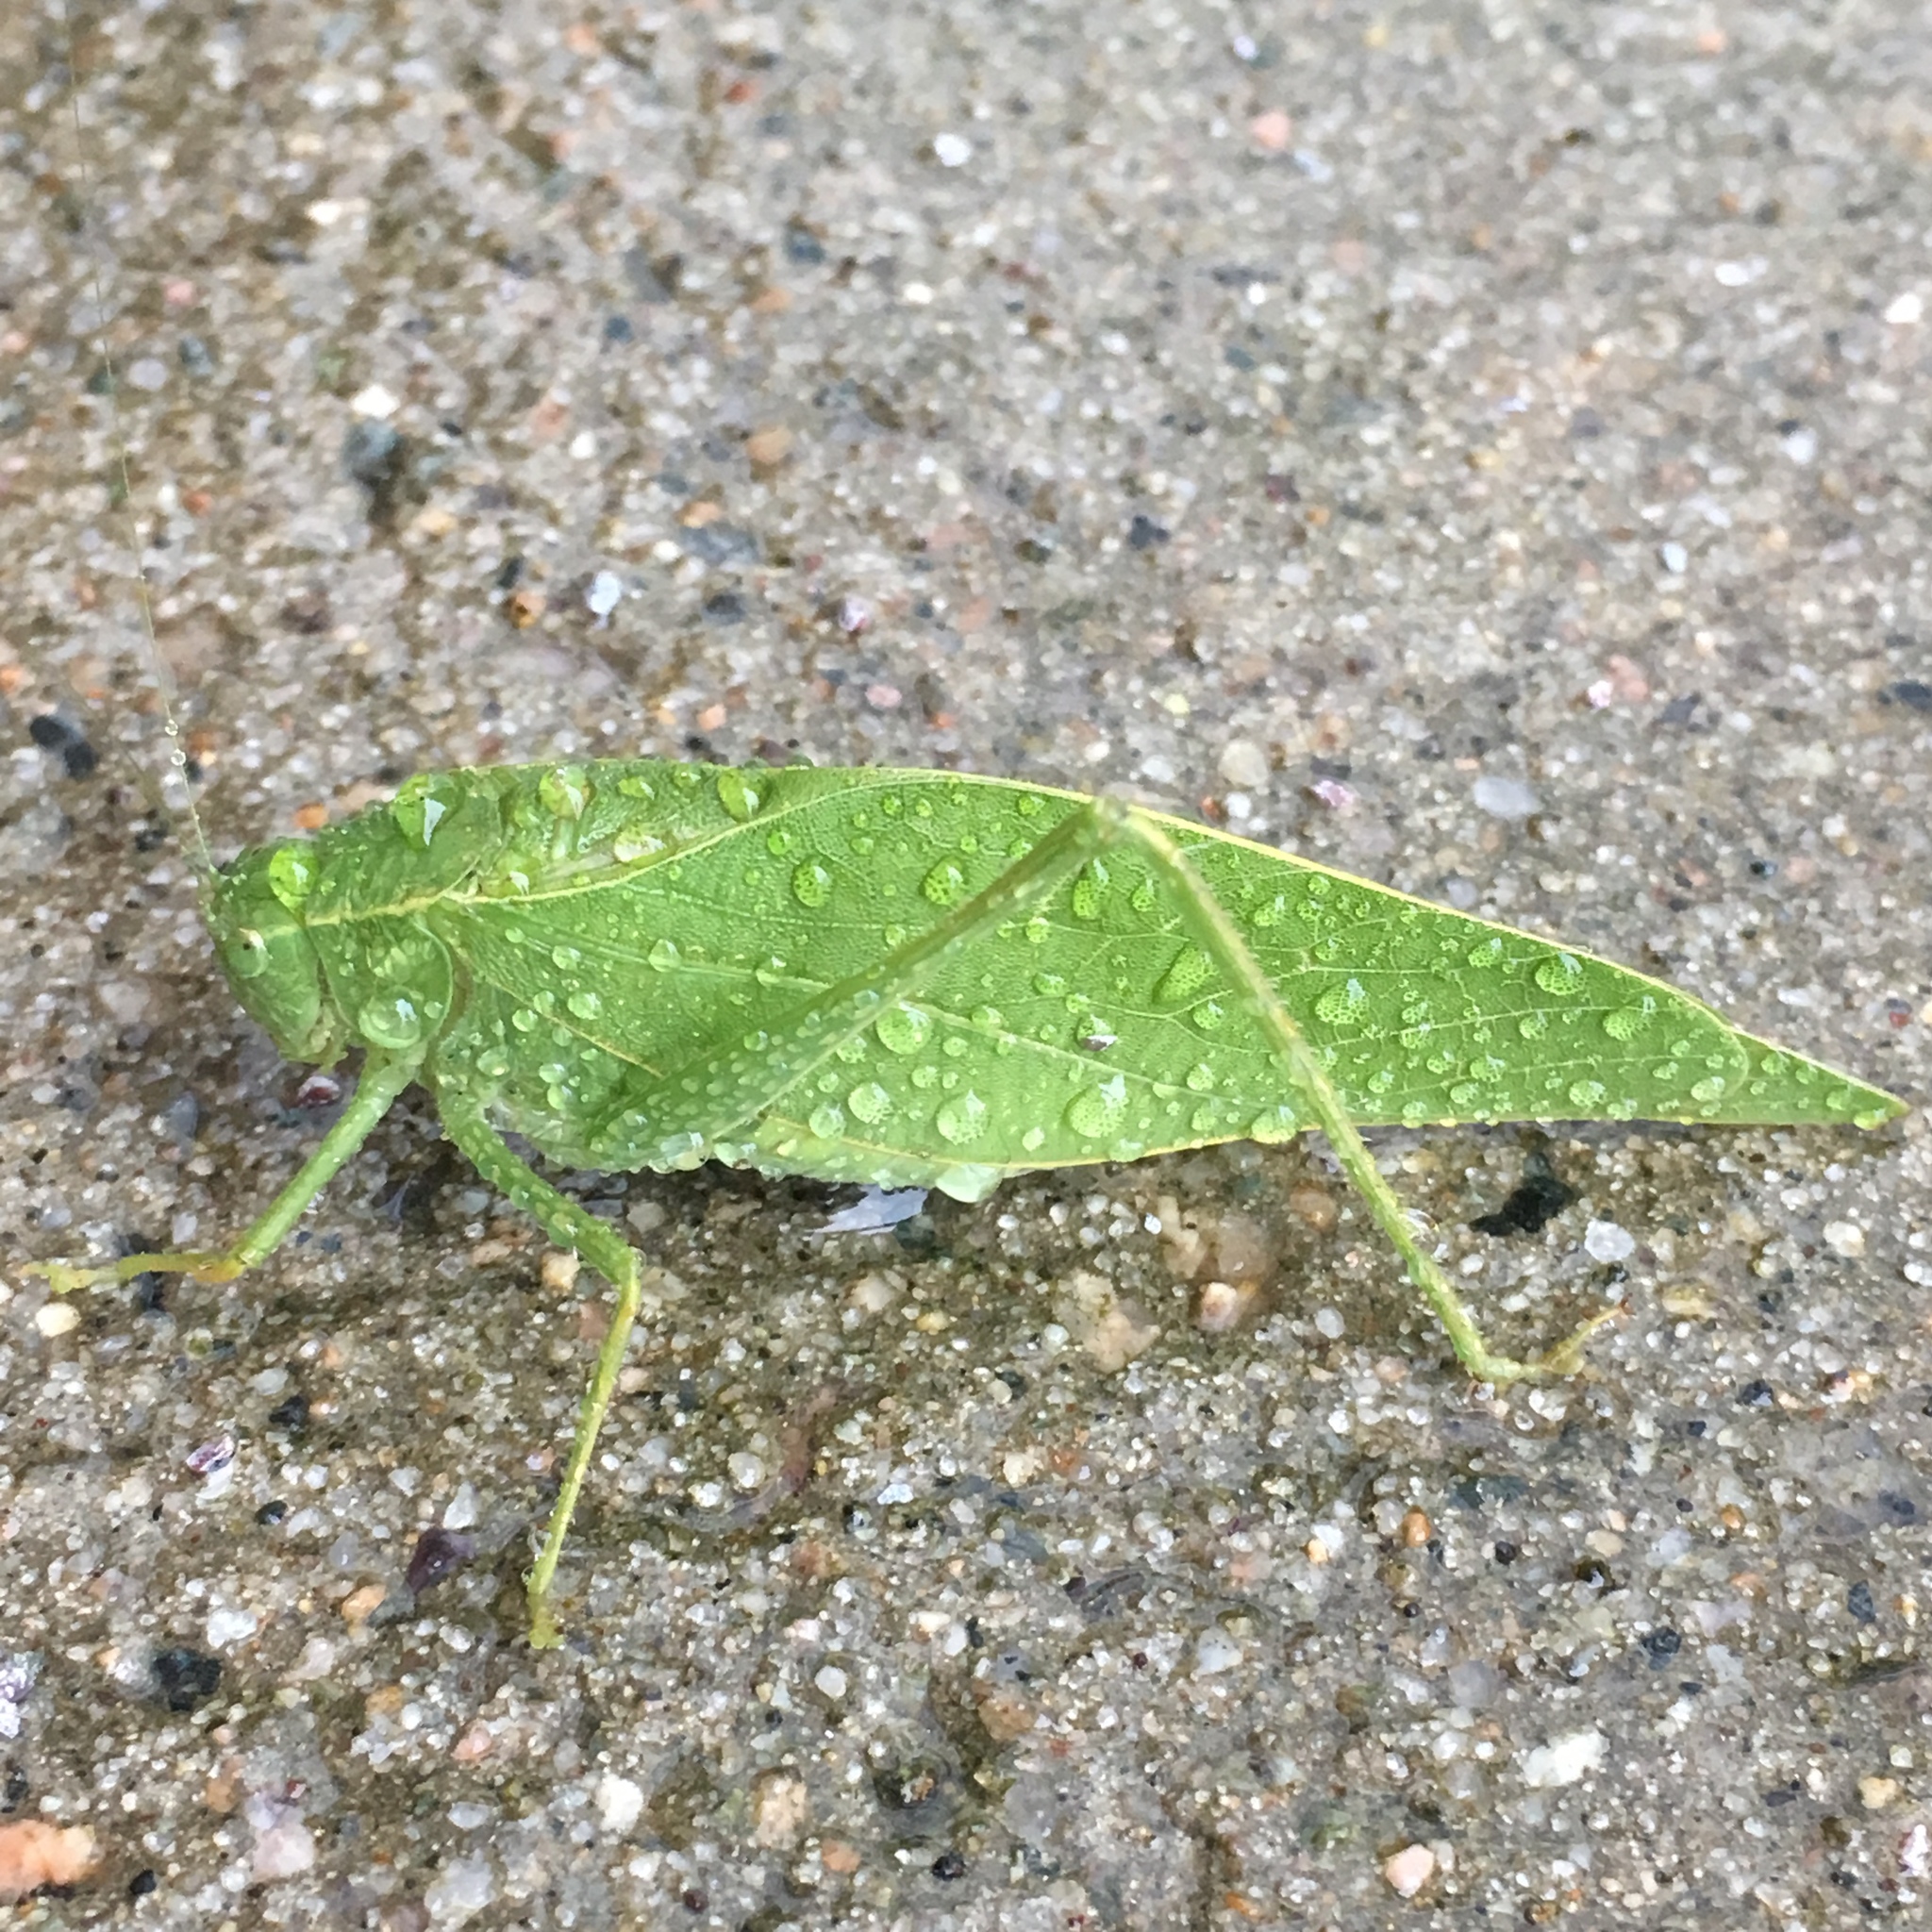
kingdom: Animalia
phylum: Arthropoda
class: Insecta
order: Orthoptera
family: Tettigoniidae
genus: Microcentrum
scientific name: Microcentrum rhombifolium
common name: Broad-winged katydid
